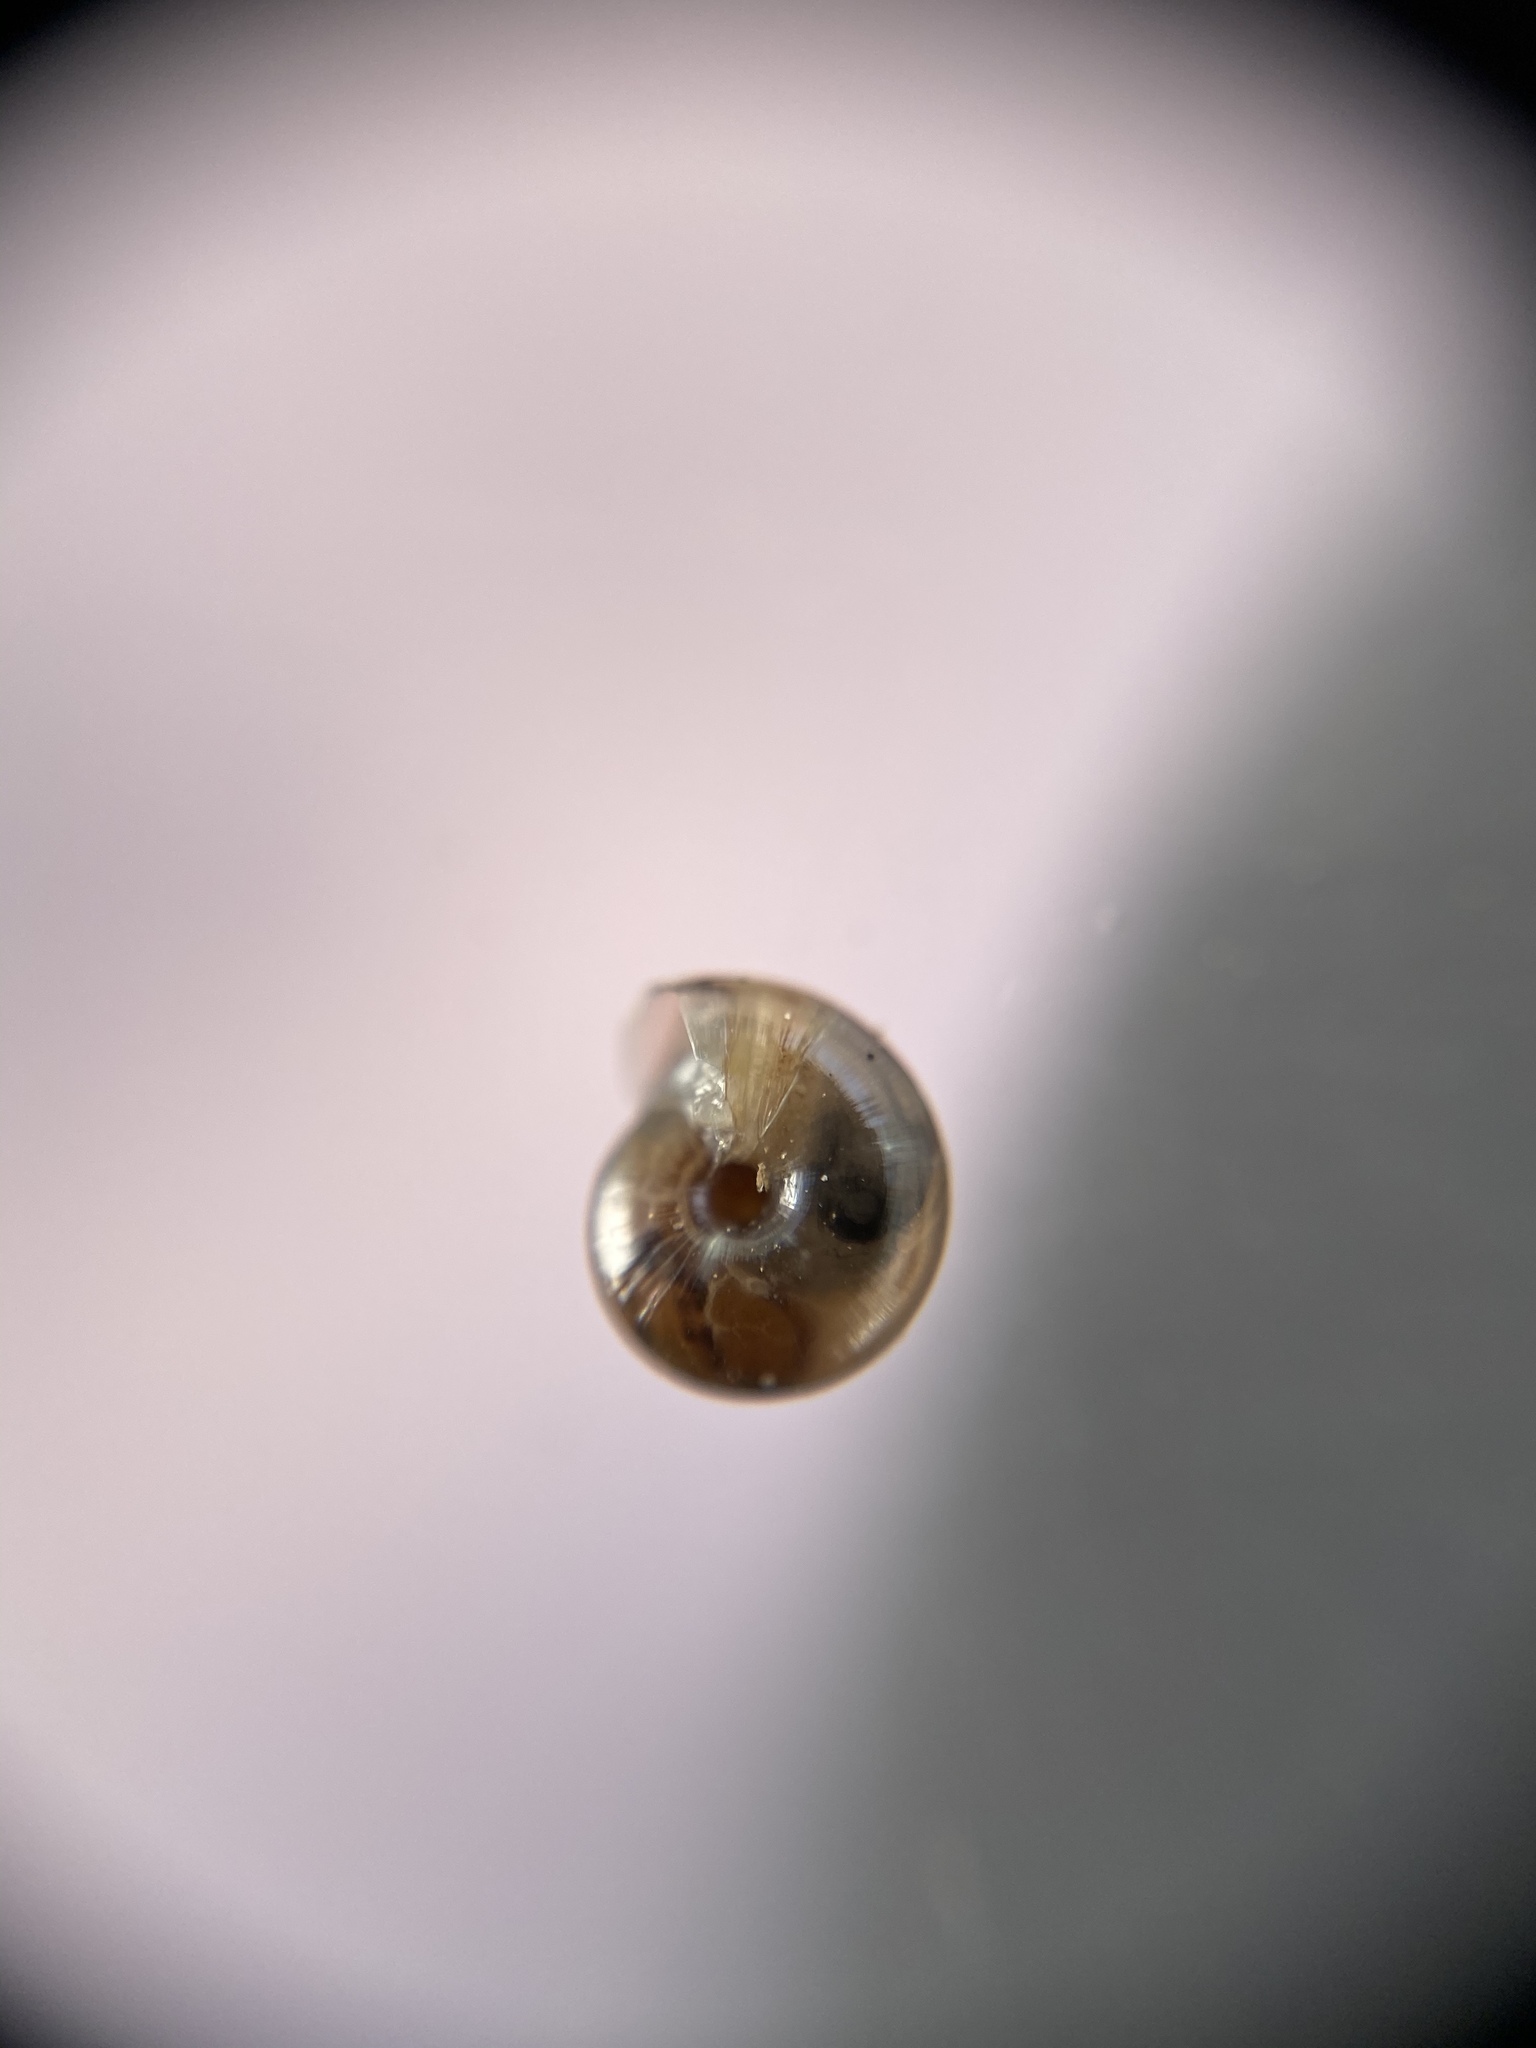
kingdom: Animalia
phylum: Mollusca
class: Gastropoda
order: Stylommatophora
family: Gastrodontidae
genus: Perpolita
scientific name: Perpolita electrina
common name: Amber glass
